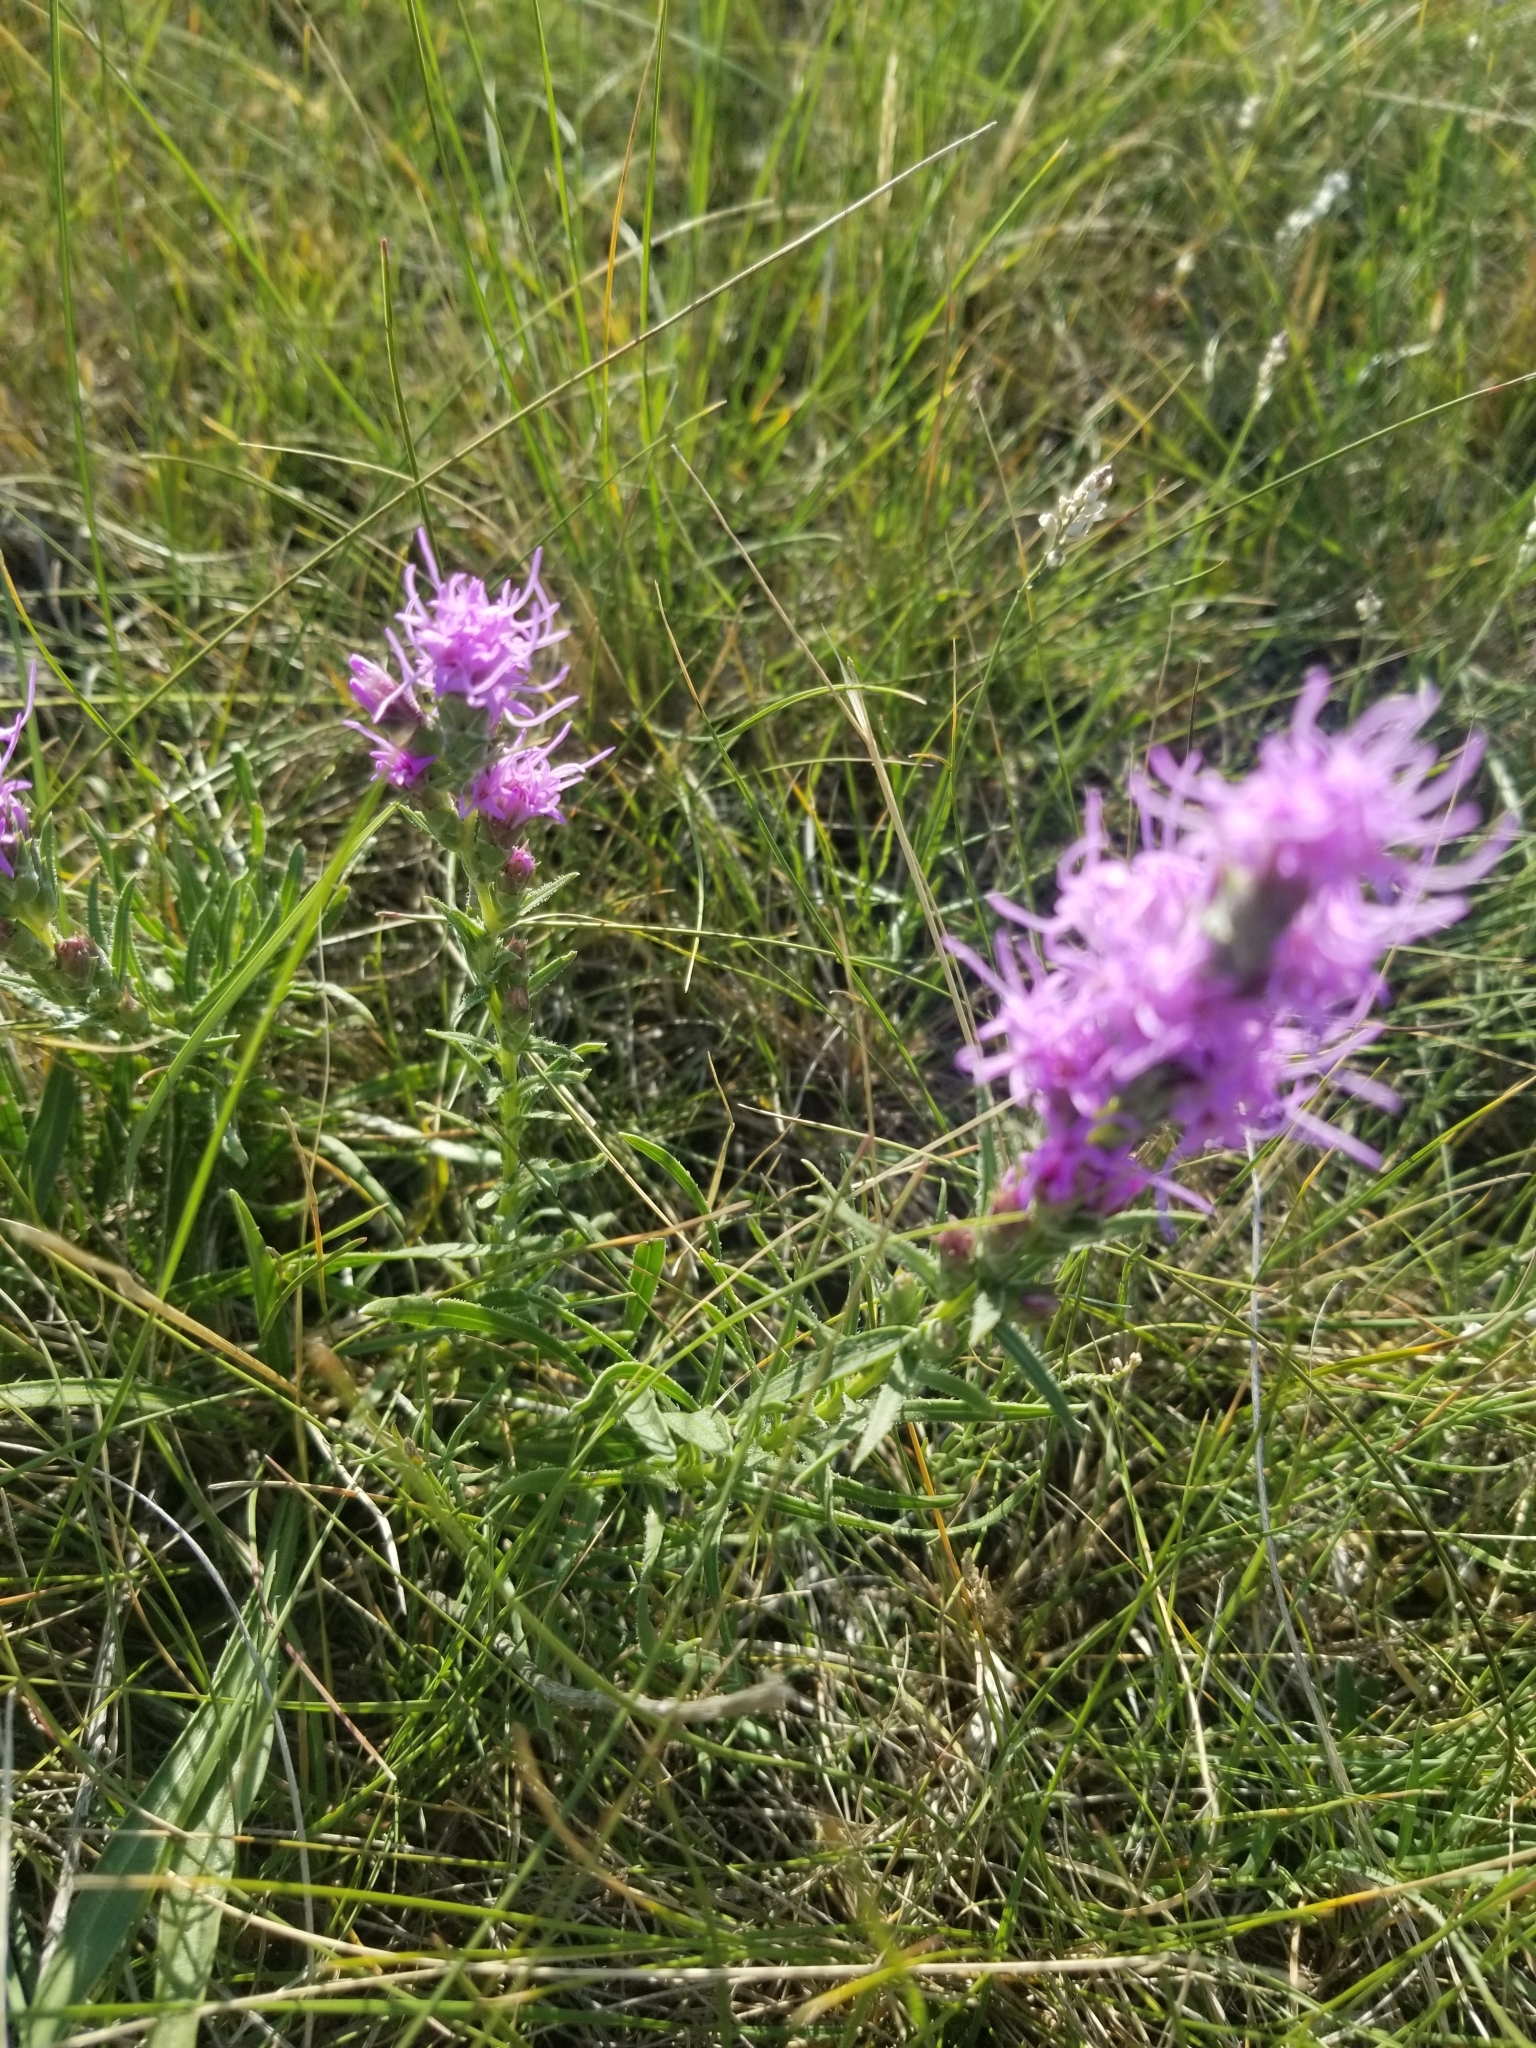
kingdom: Plantae
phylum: Tracheophyta
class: Magnoliopsida
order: Asterales
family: Asteraceae
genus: Liatris
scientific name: Liatris punctata
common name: Dotted gayfeather
